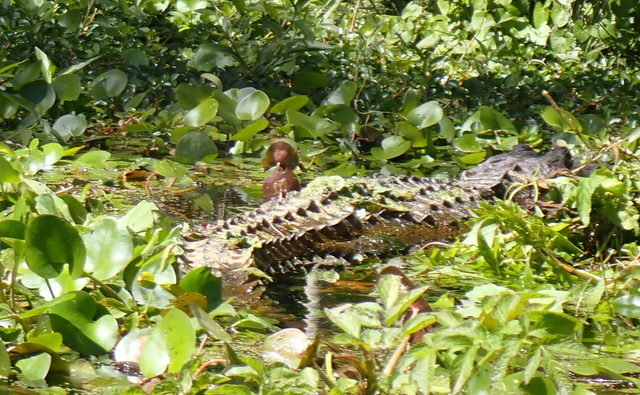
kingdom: Animalia
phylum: Chordata
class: Crocodylia
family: Alligatoridae
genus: Alligator
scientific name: Alligator mississippiensis
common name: American alligator
